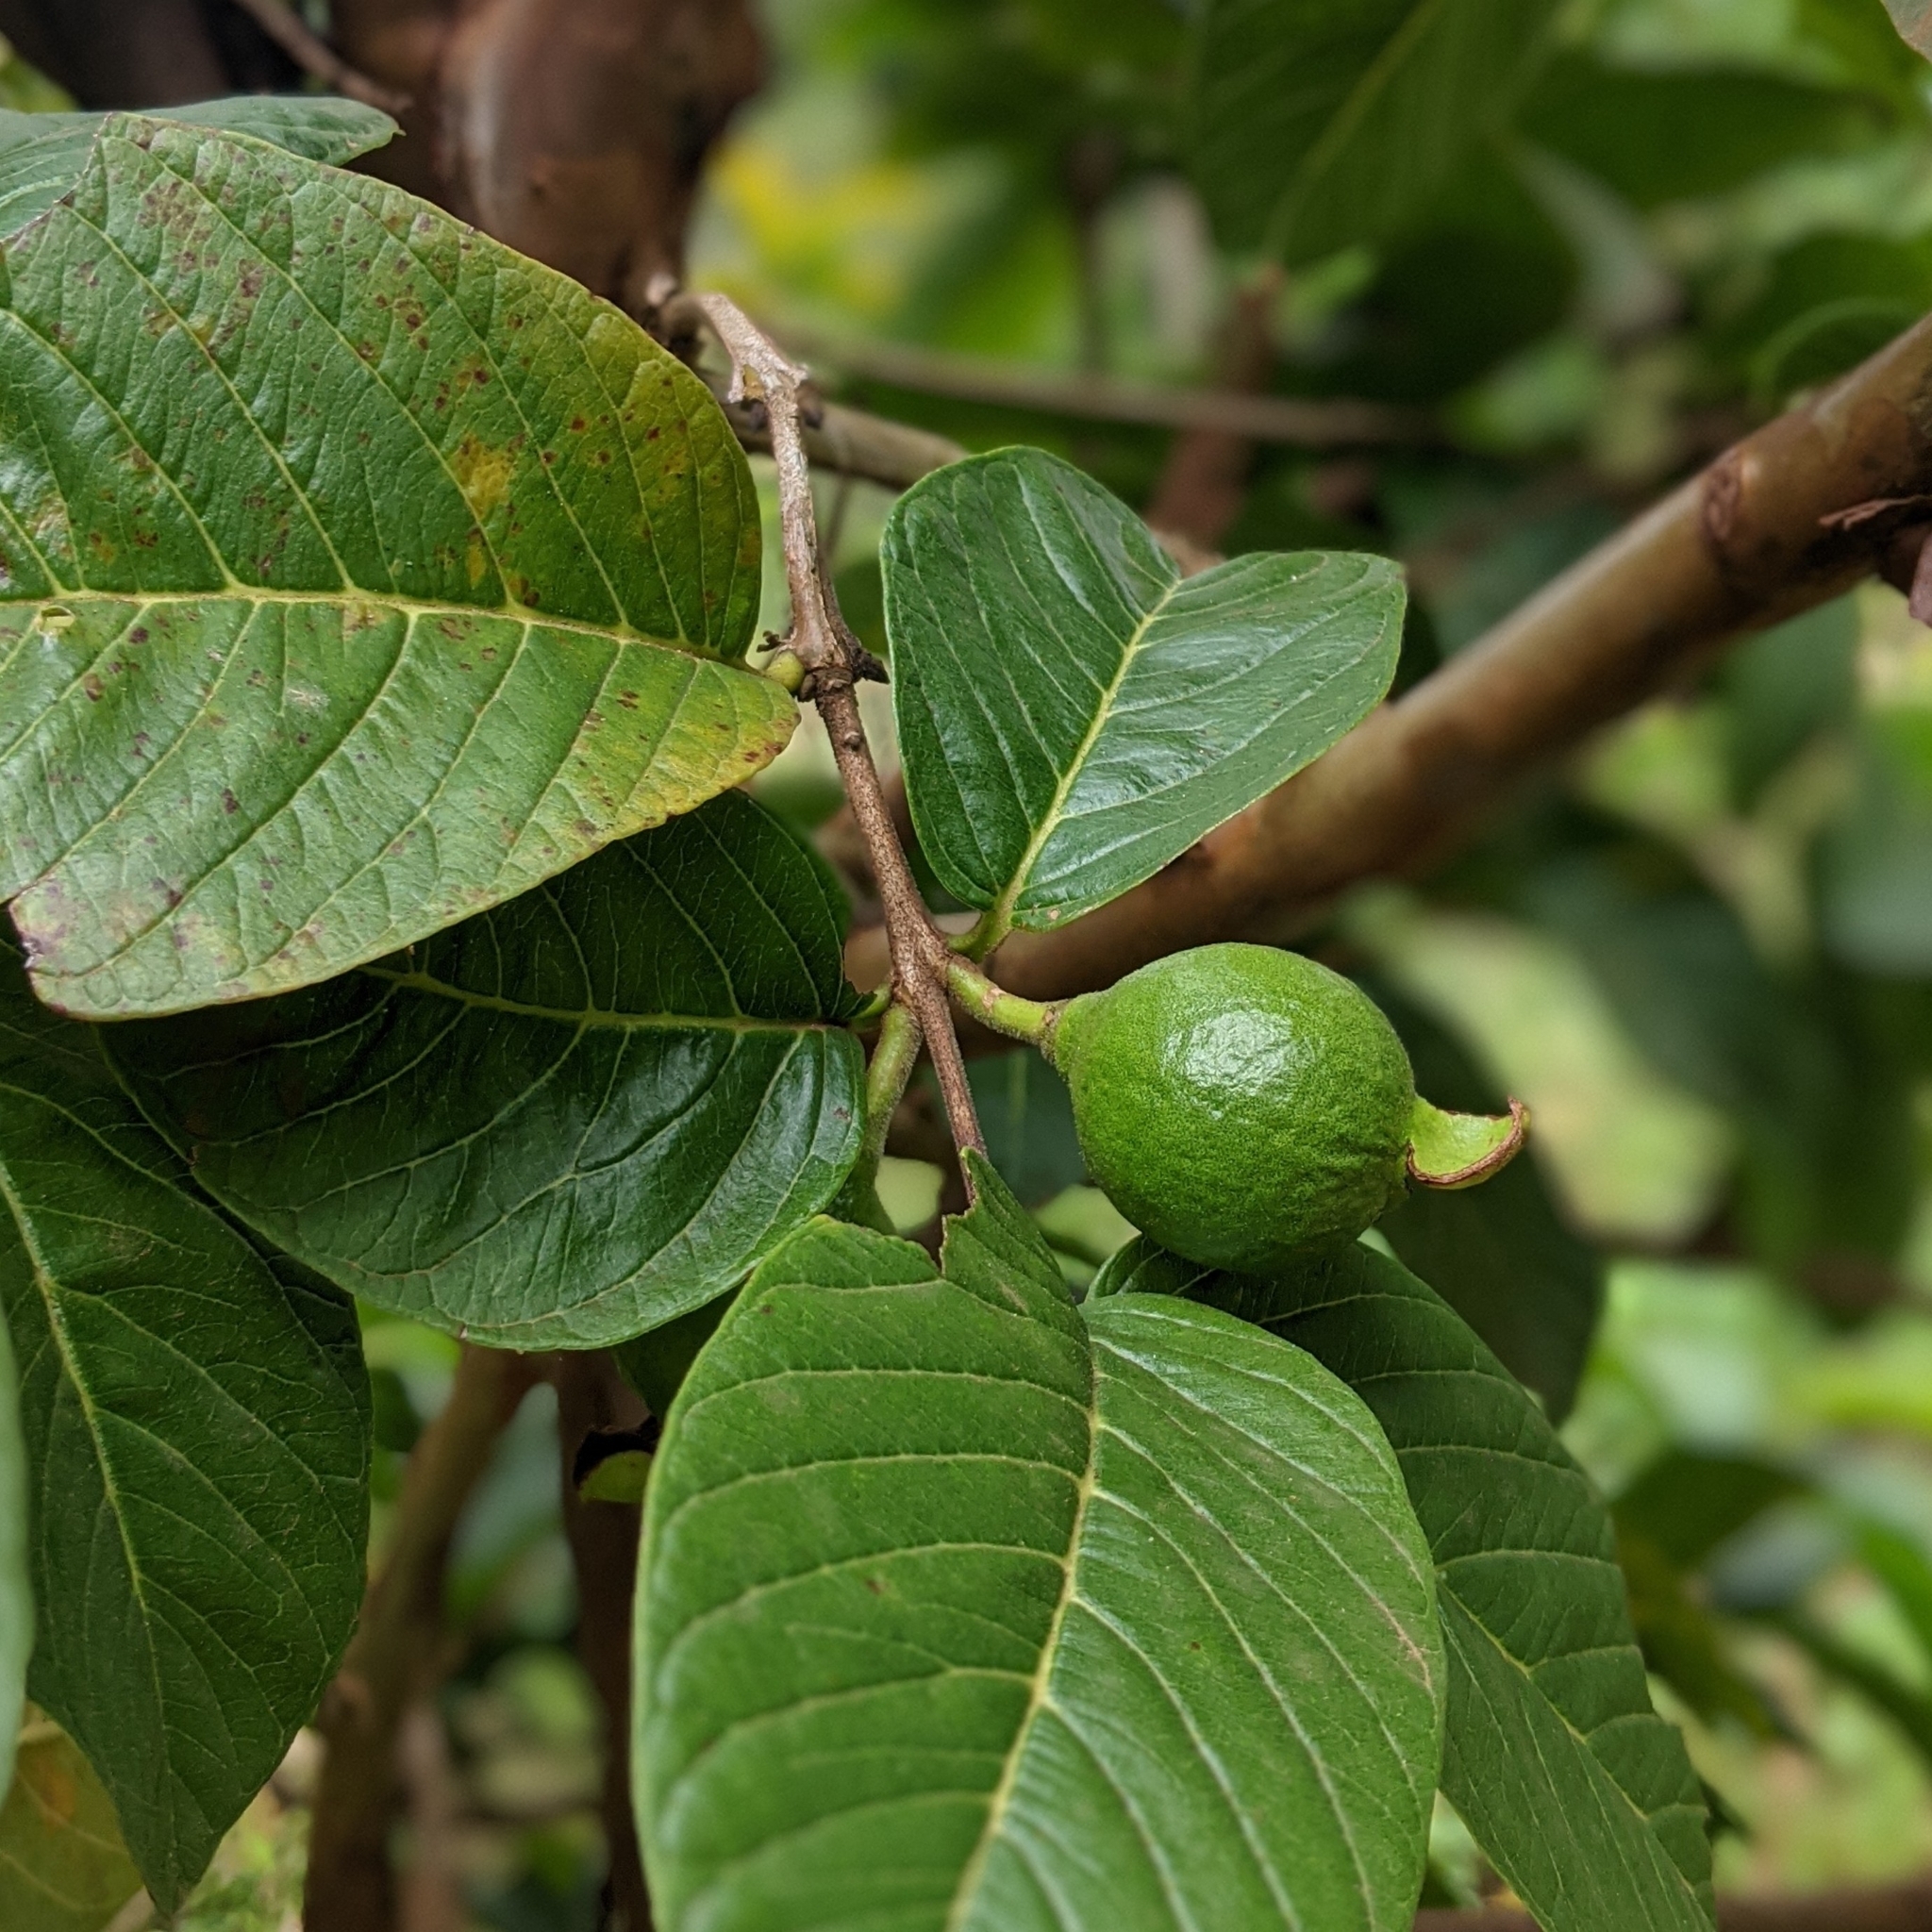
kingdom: Plantae
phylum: Tracheophyta
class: Magnoliopsida
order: Myrtales
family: Myrtaceae
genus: Psidium
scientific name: Psidium guajava
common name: Guava
